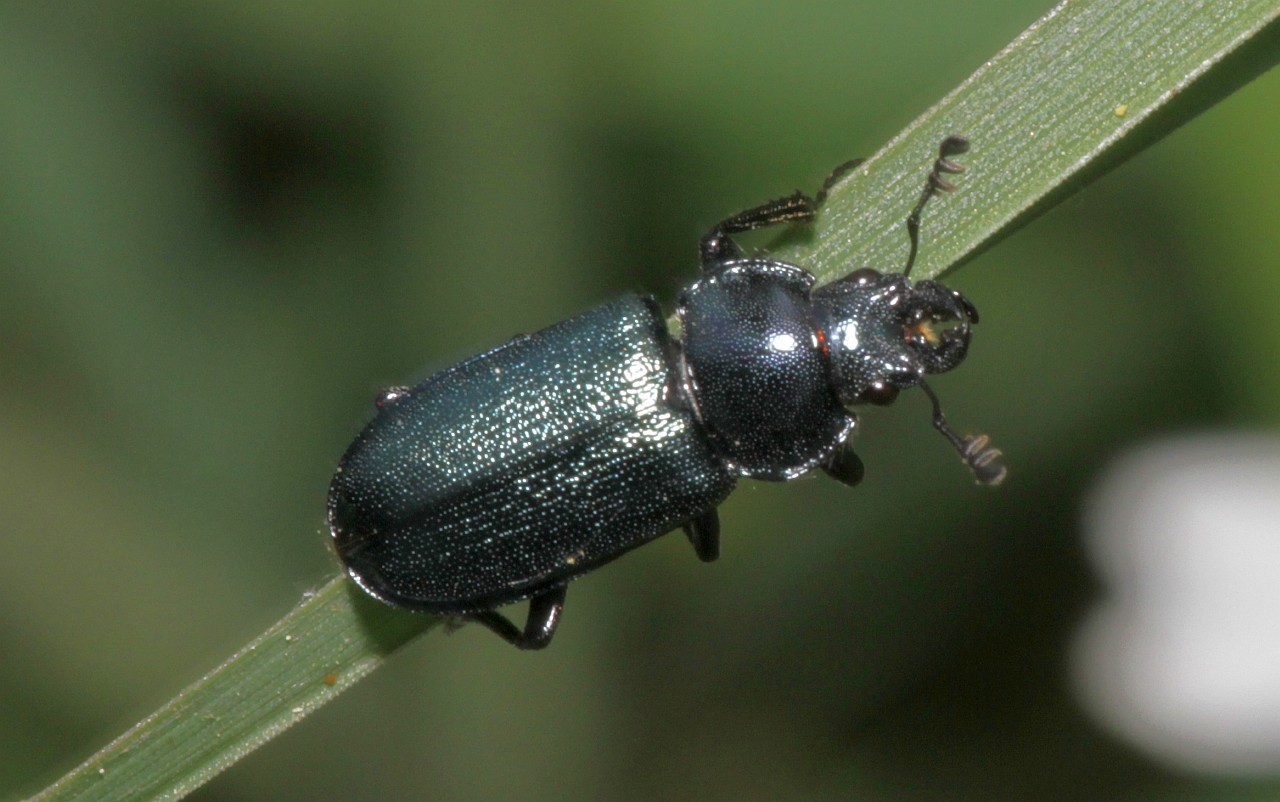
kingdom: Animalia
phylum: Arthropoda
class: Insecta
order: Coleoptera
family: Lucanidae
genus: Platycerus
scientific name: Platycerus caraboides
